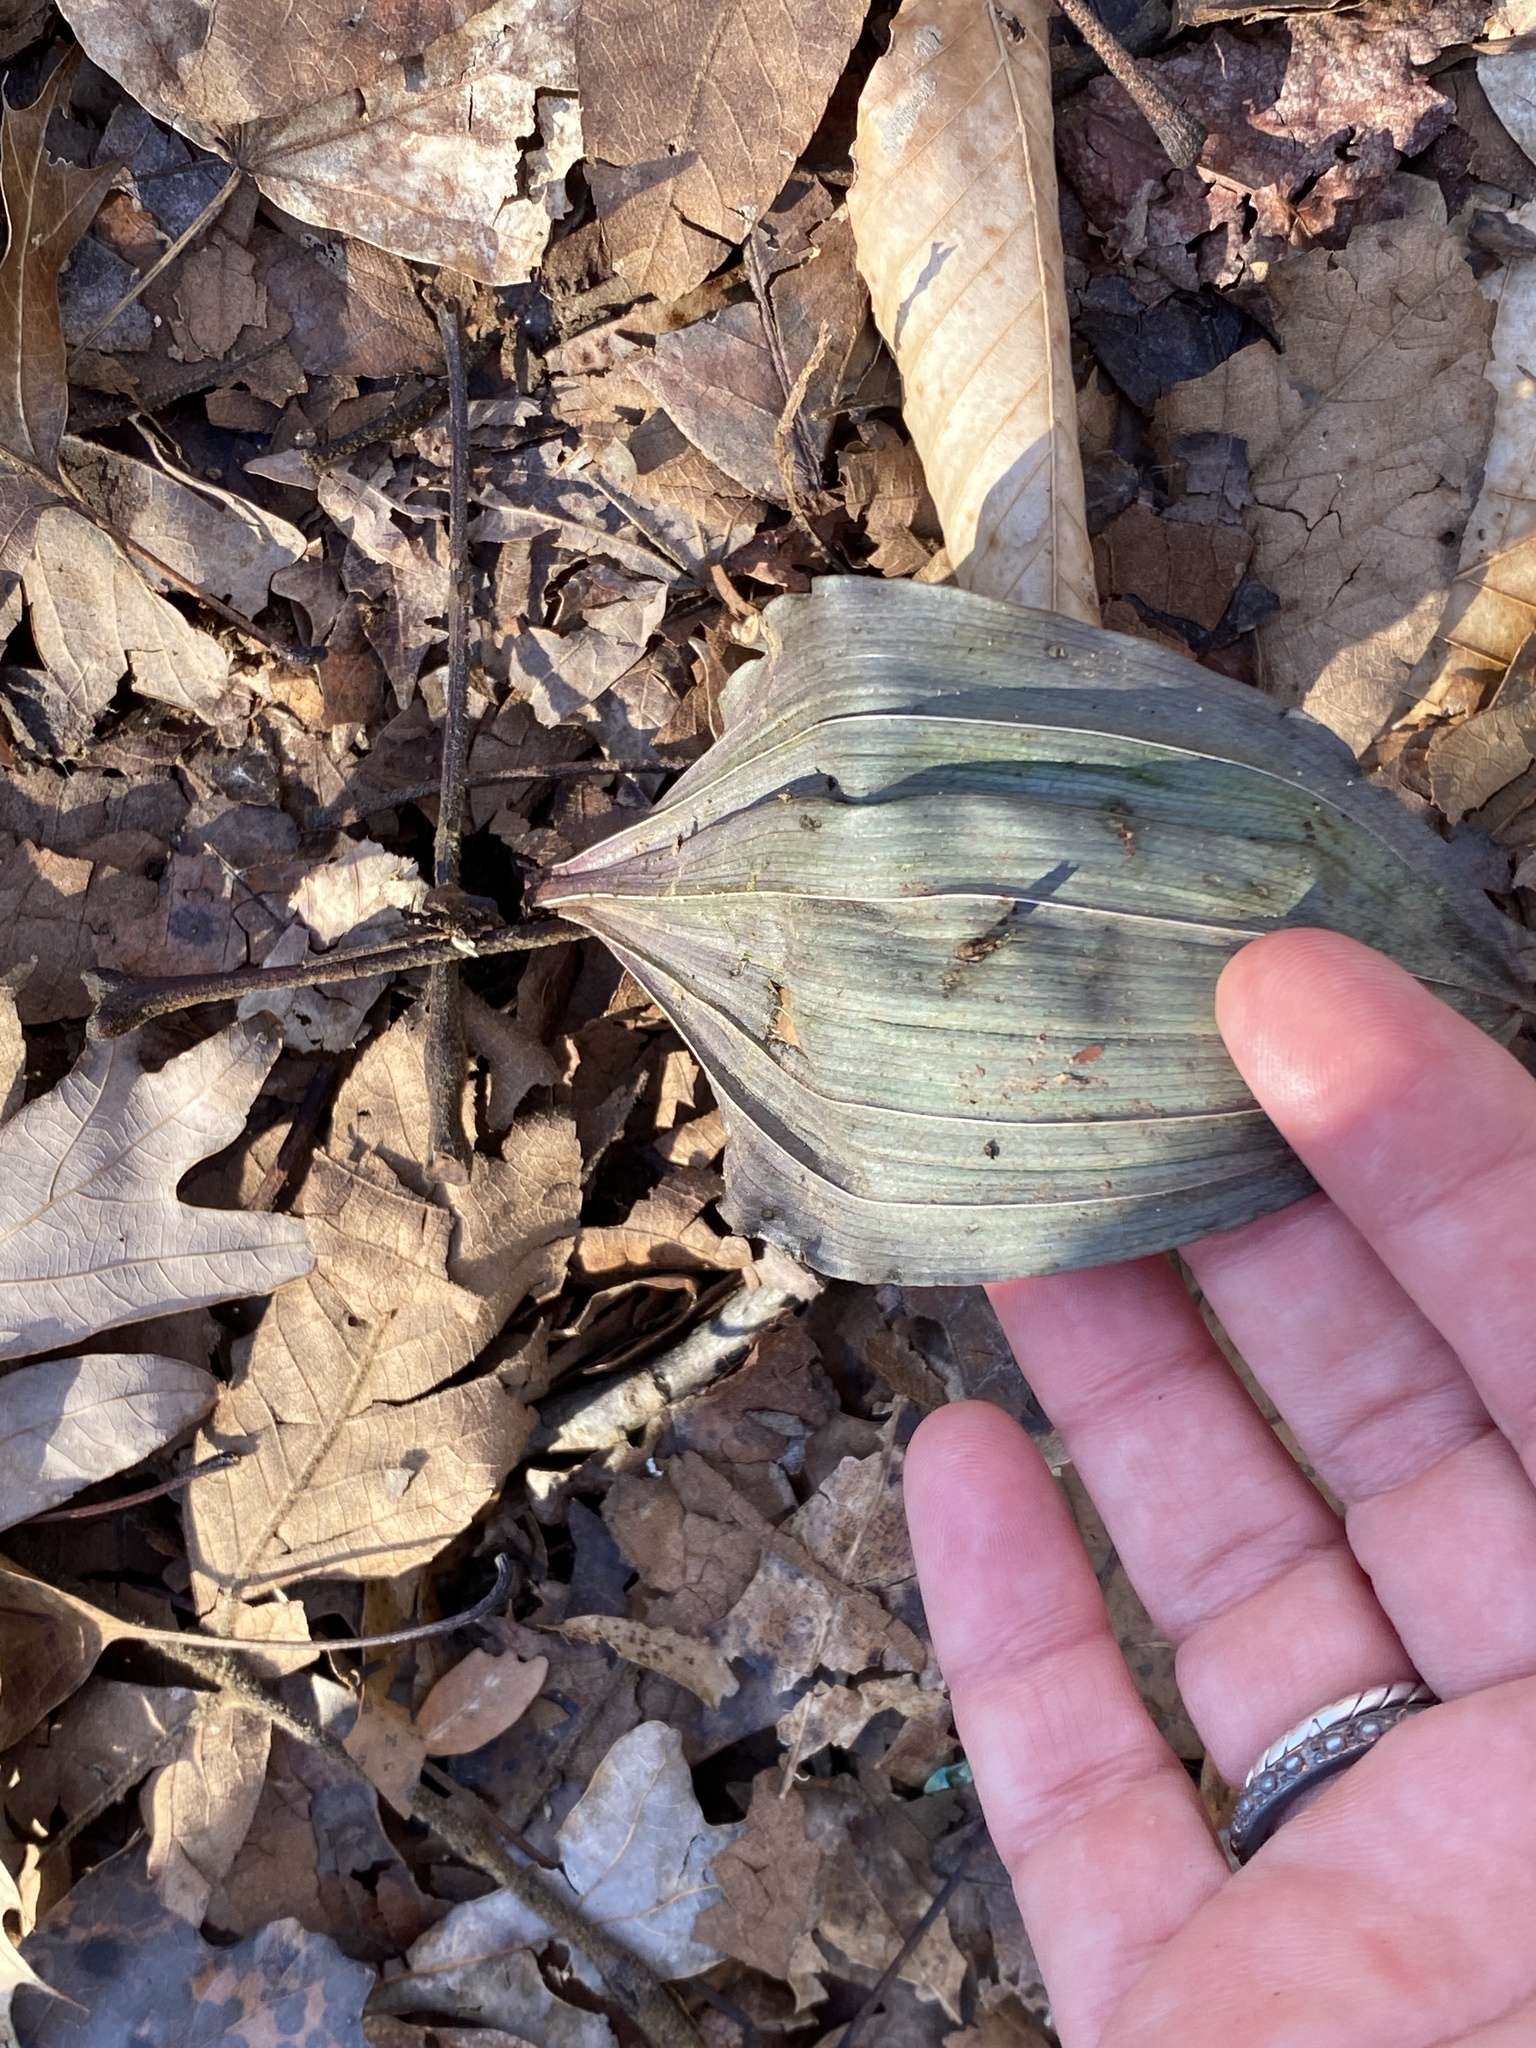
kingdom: Plantae
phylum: Tracheophyta
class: Liliopsida
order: Asparagales
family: Orchidaceae
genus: Aplectrum
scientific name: Aplectrum hyemale
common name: Adam-and-eve
